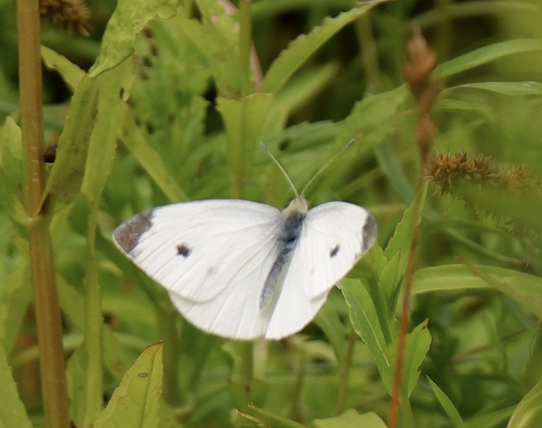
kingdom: Animalia
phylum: Arthropoda
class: Insecta
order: Lepidoptera
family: Pieridae
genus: Pieris
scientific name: Pieris rapae
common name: Small white
